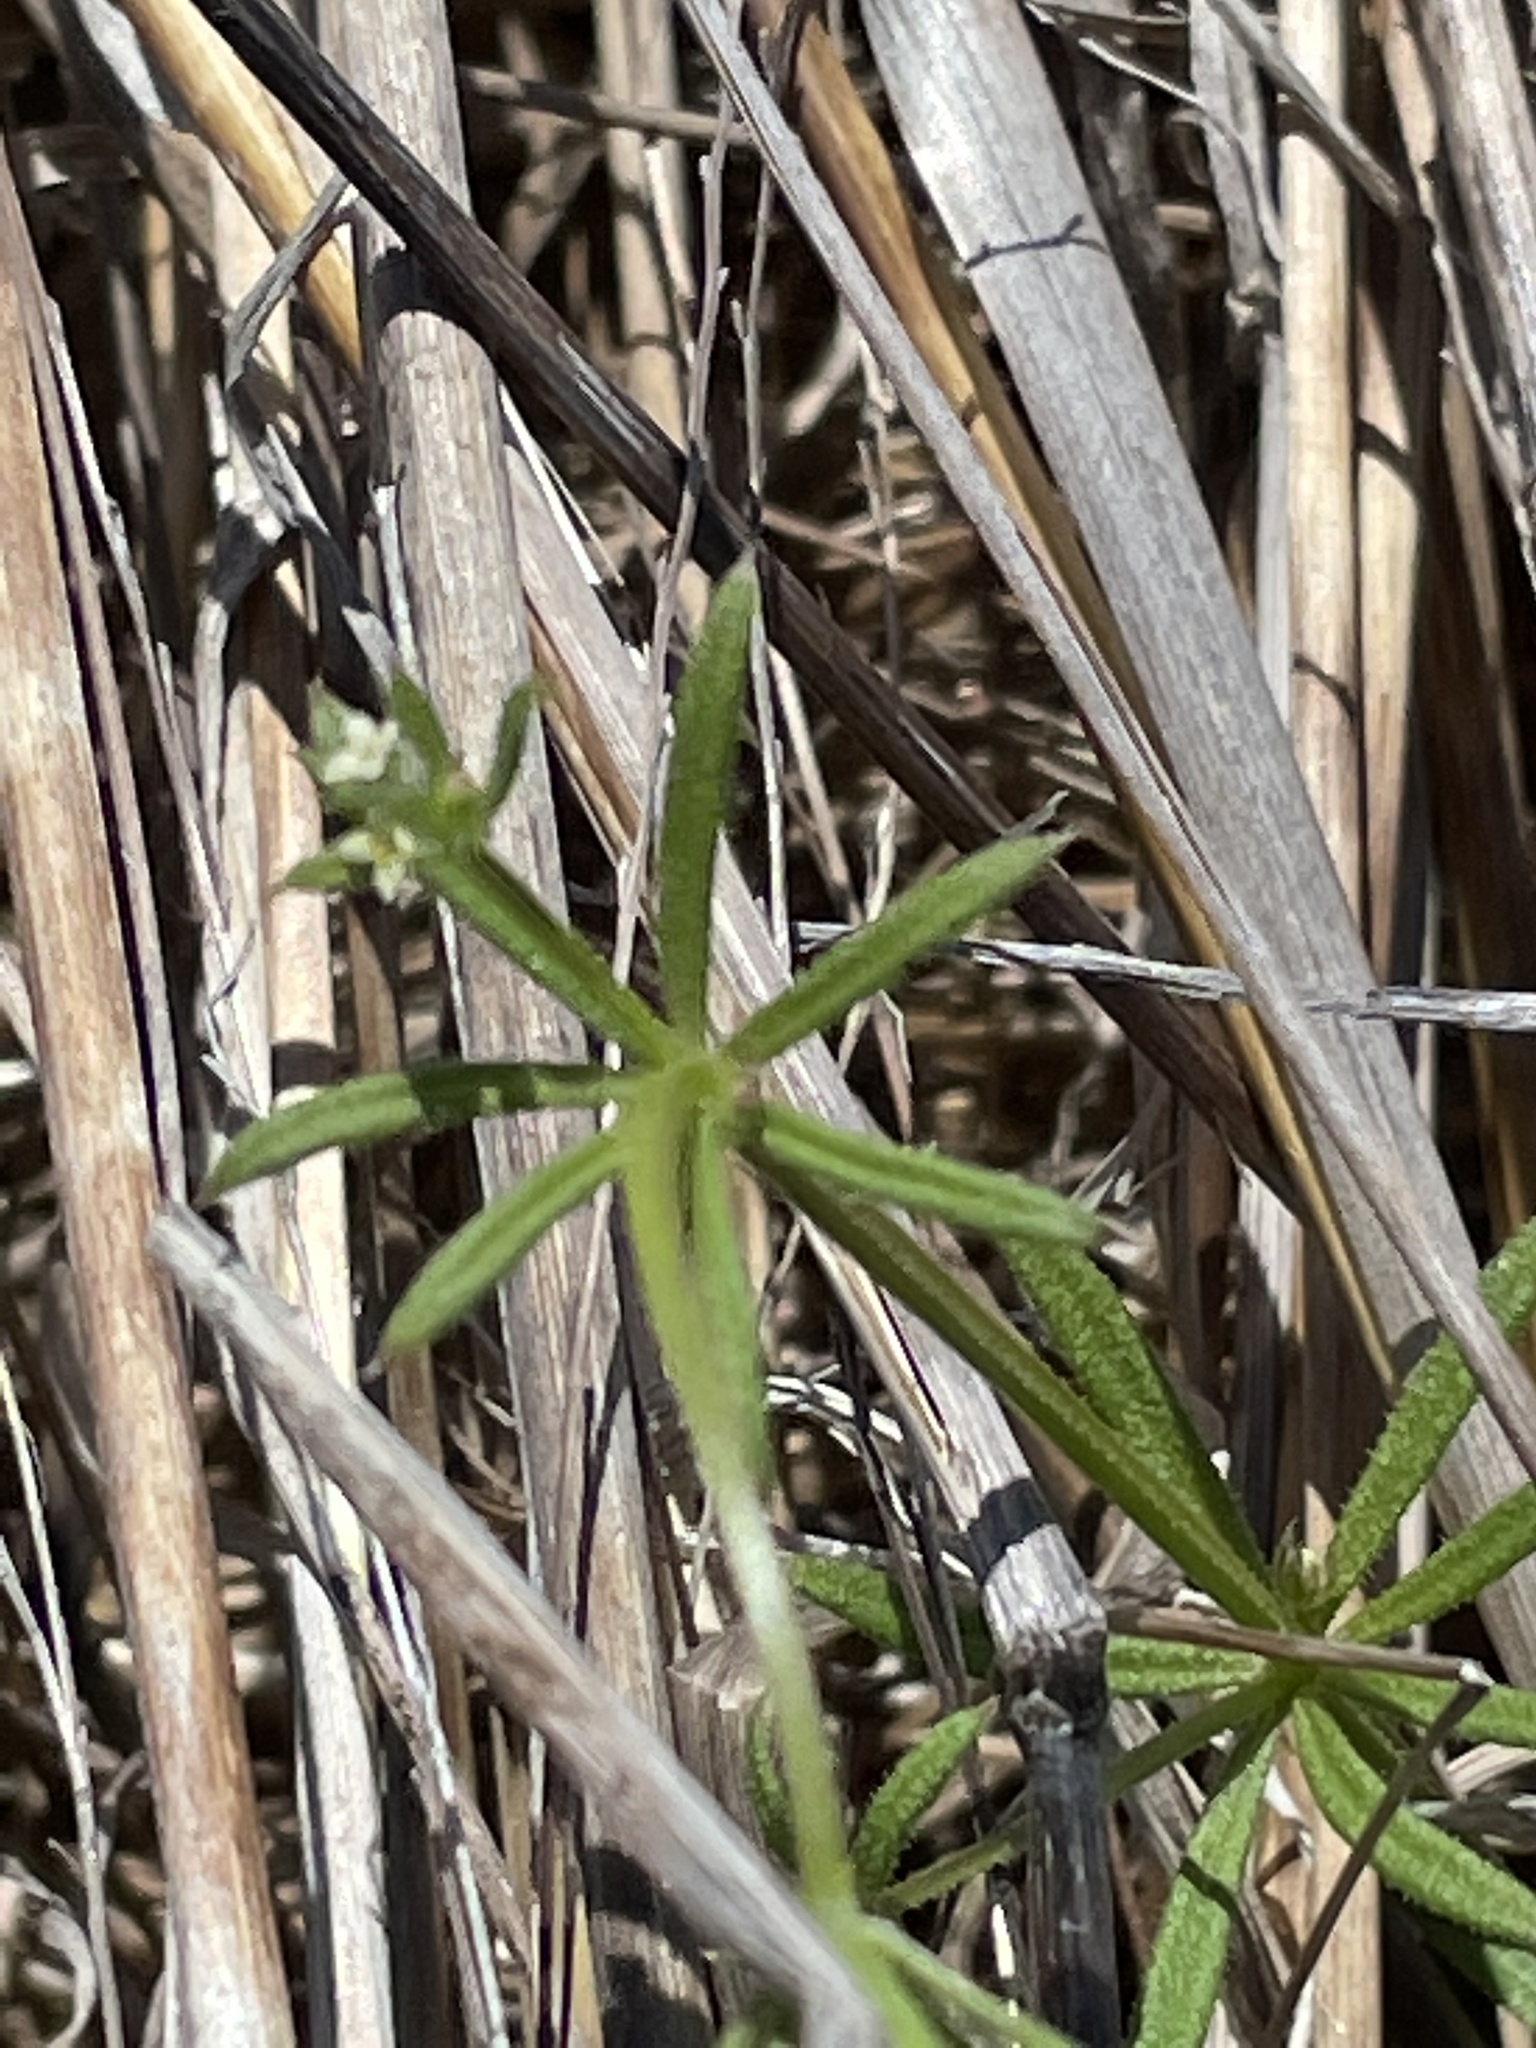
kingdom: Plantae
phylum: Tracheophyta
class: Magnoliopsida
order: Gentianales
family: Rubiaceae
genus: Galium
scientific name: Galium aparine
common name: Cleavers
